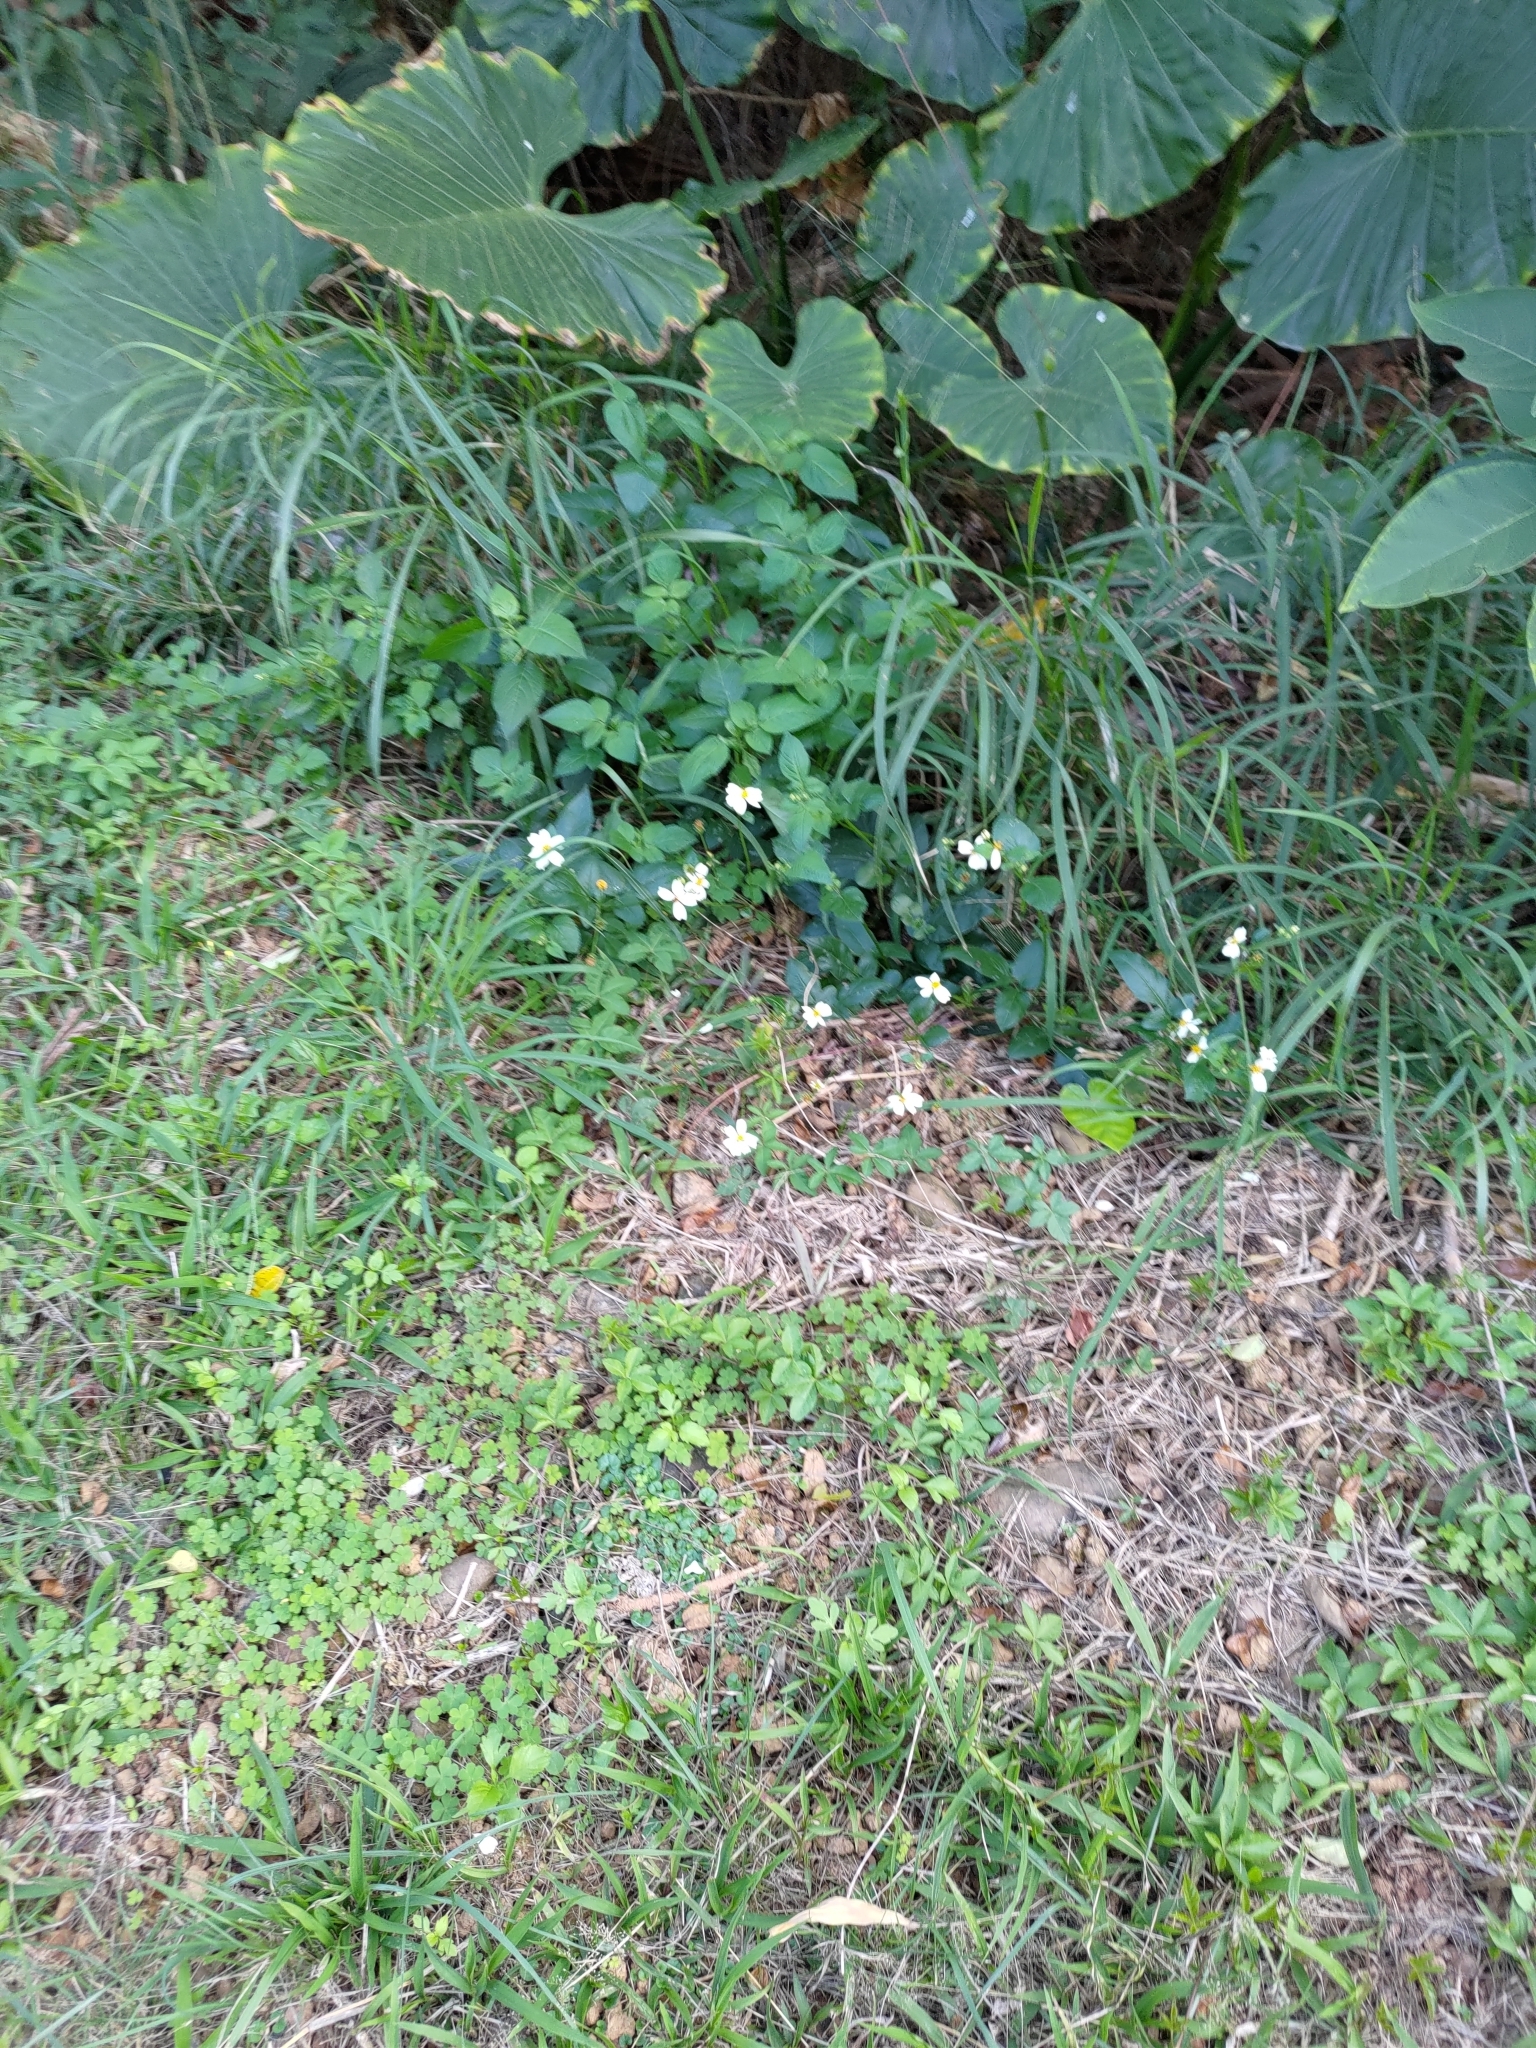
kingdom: Plantae
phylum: Tracheophyta
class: Magnoliopsida
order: Asterales
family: Asteraceae
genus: Bidens
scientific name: Bidens alba
